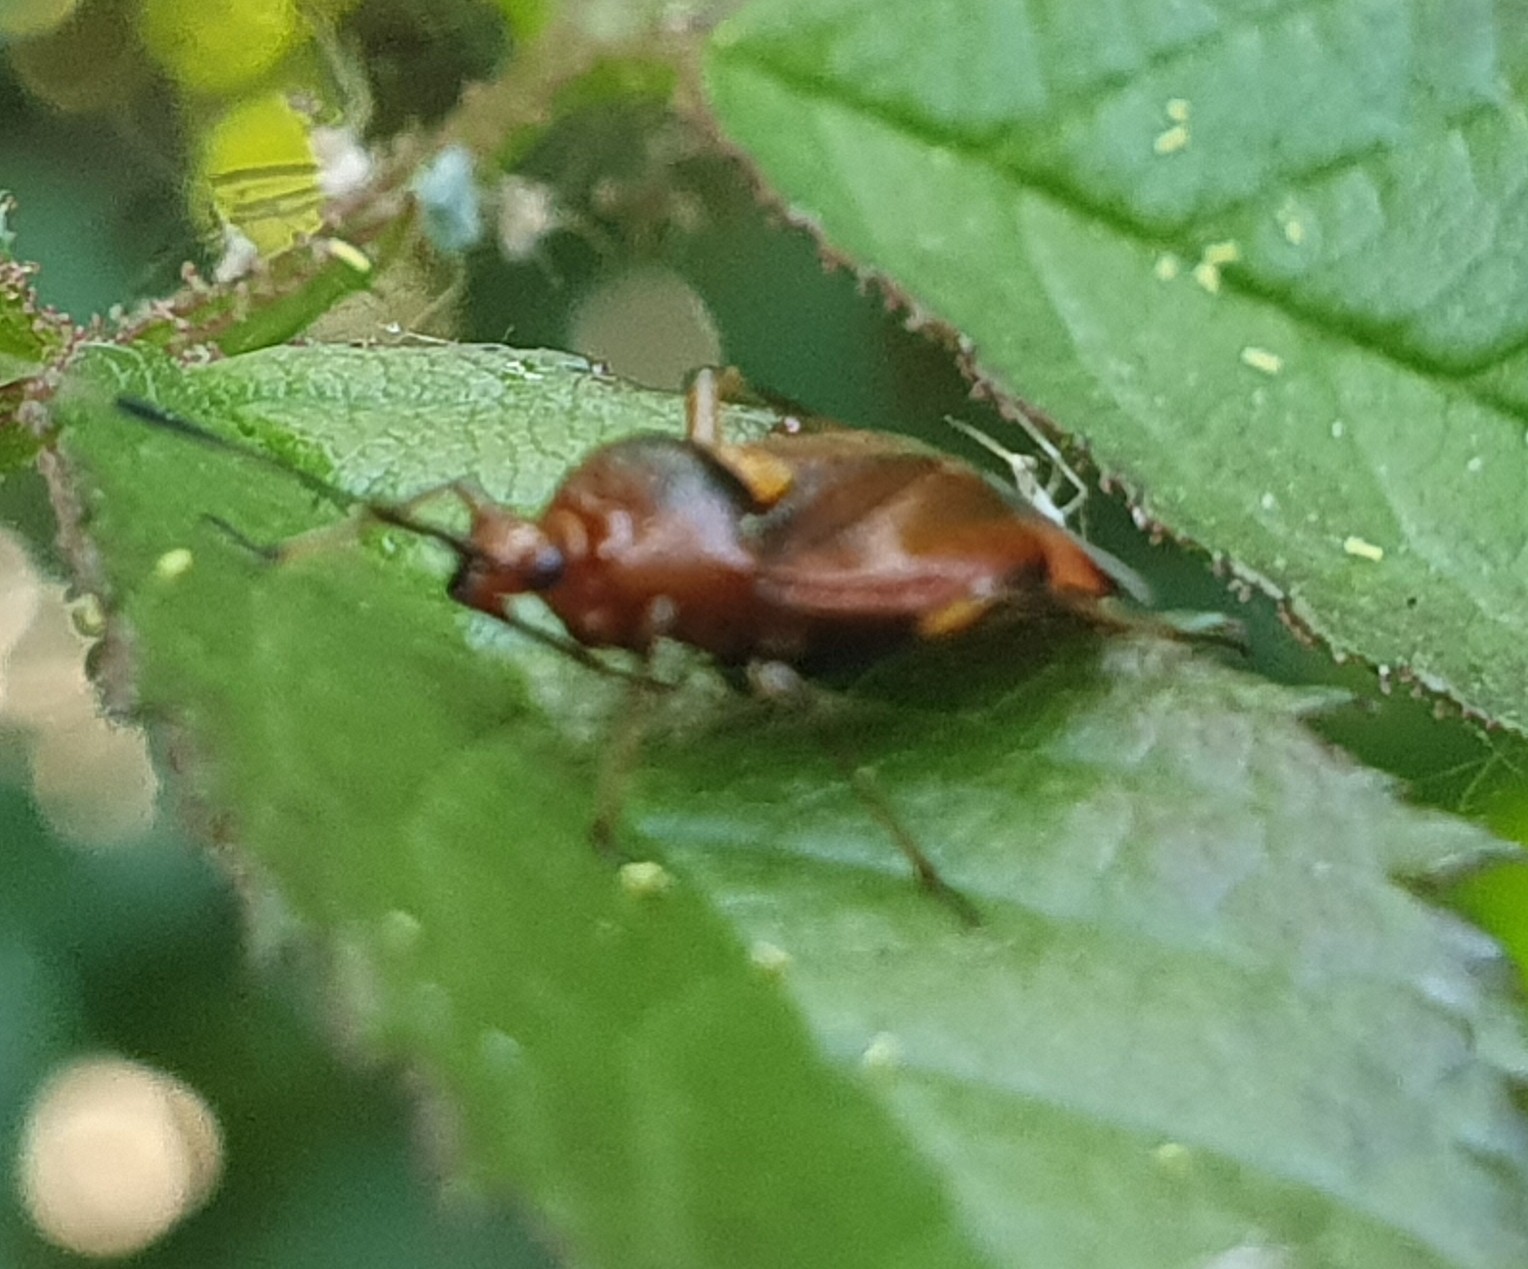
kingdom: Animalia
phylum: Arthropoda
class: Insecta
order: Hemiptera
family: Miridae
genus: Deraeocoris
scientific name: Deraeocoris ruber
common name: Plant bug
